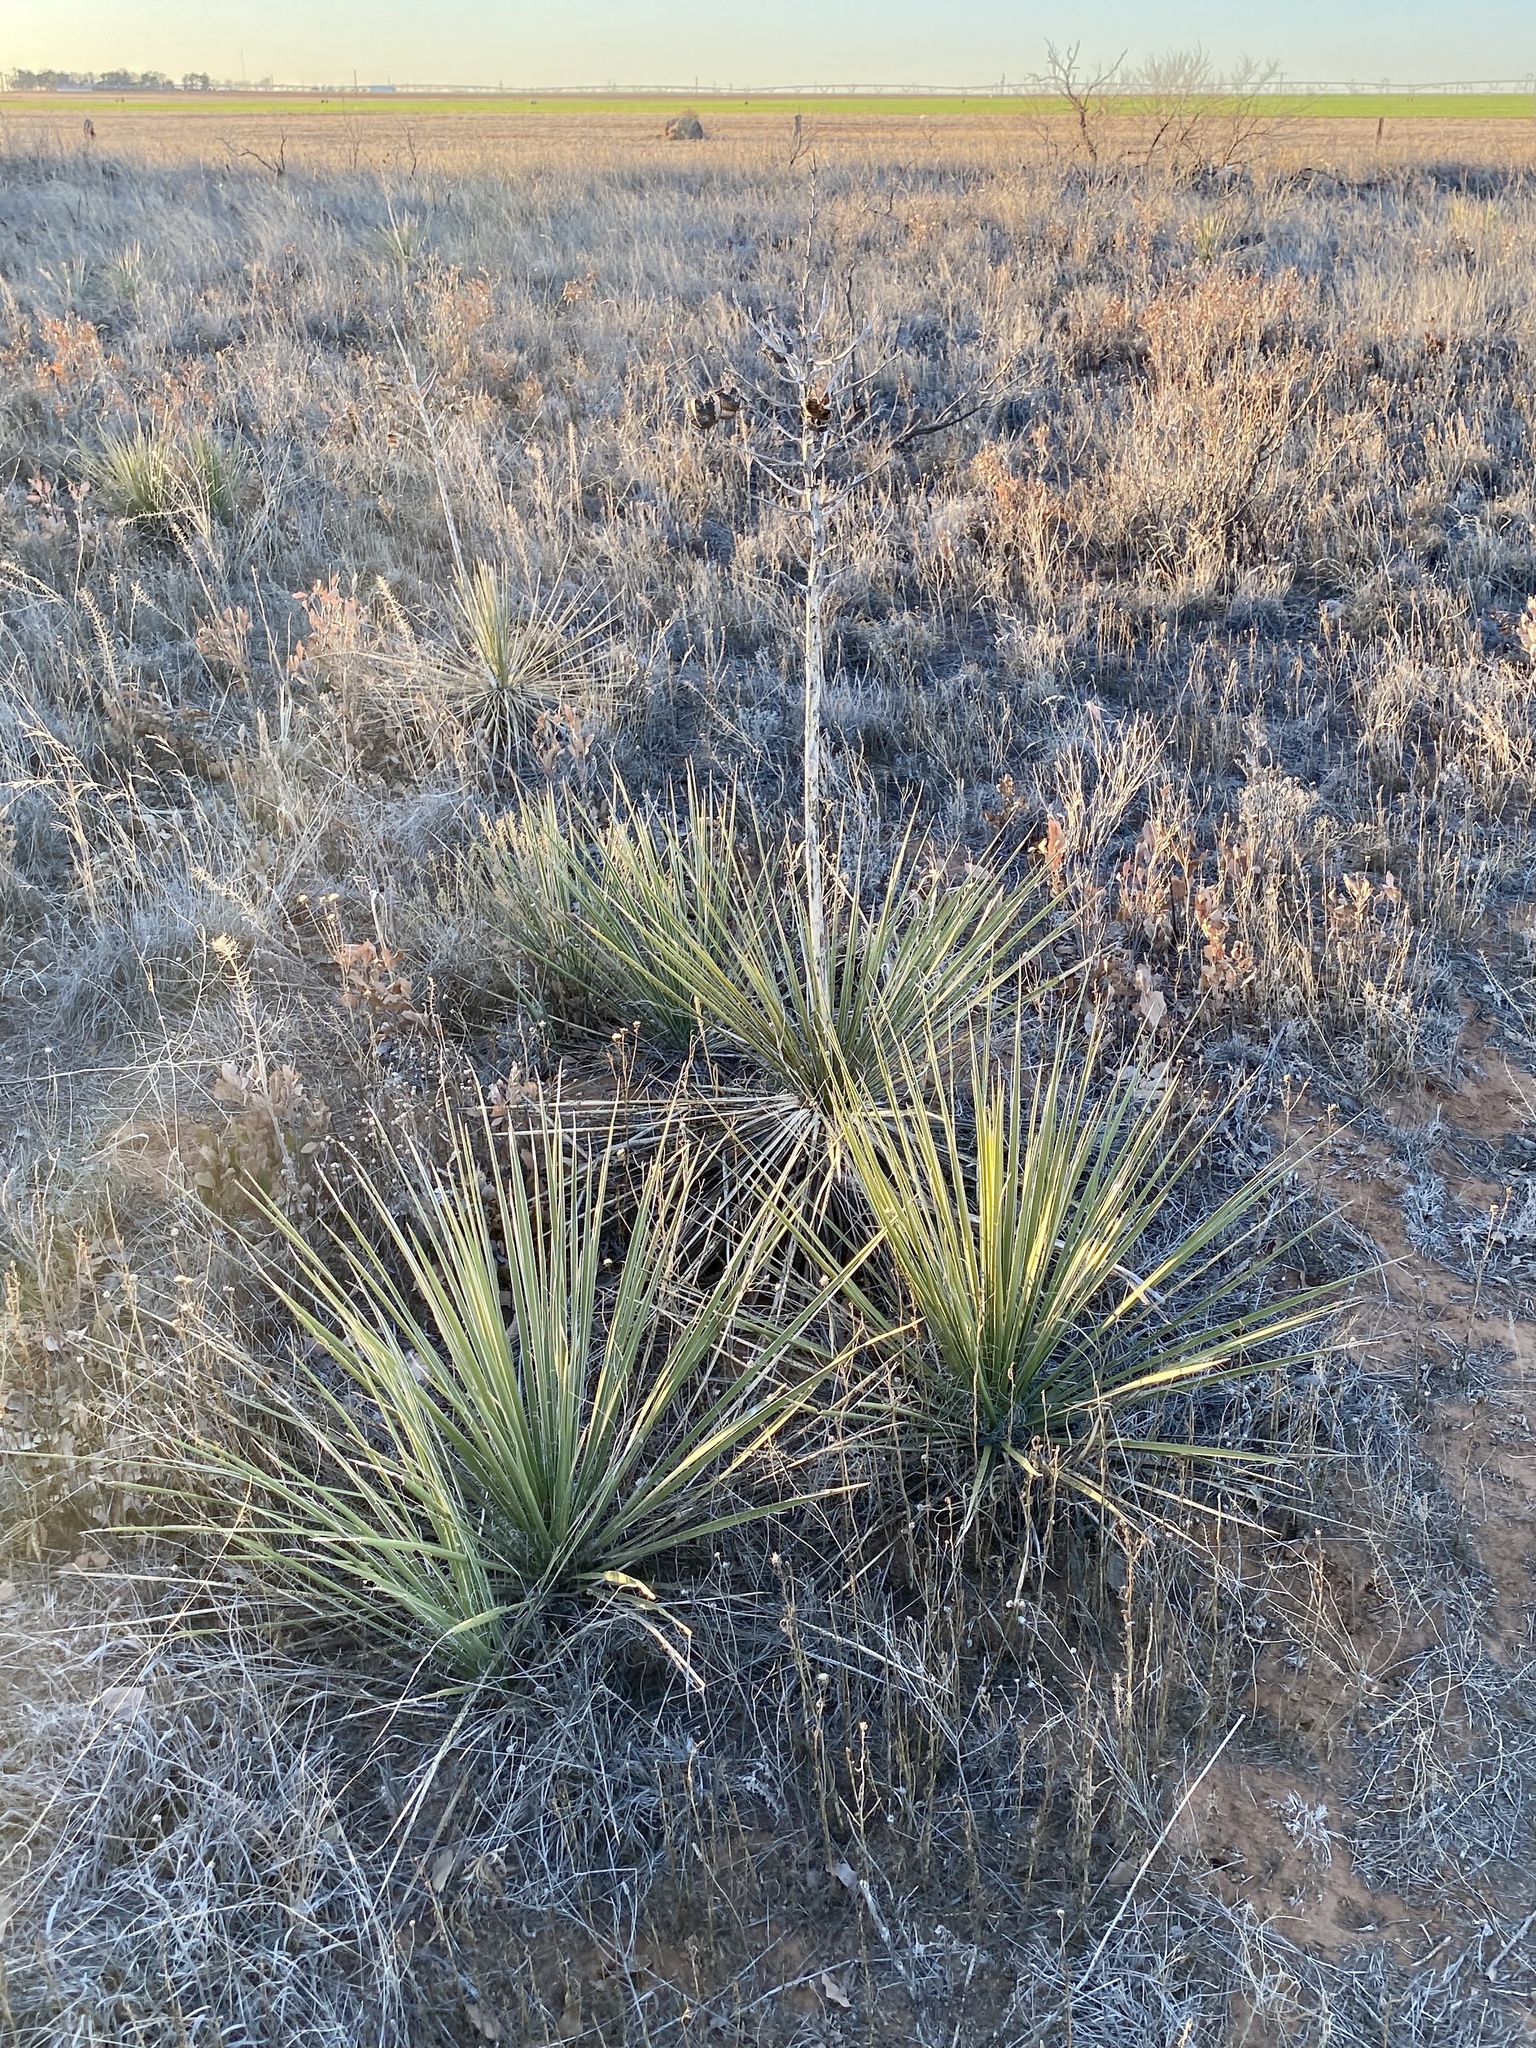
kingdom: Plantae
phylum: Tracheophyta
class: Liliopsida
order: Asparagales
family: Asparagaceae
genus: Yucca
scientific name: Yucca campestris
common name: Plains yucca
